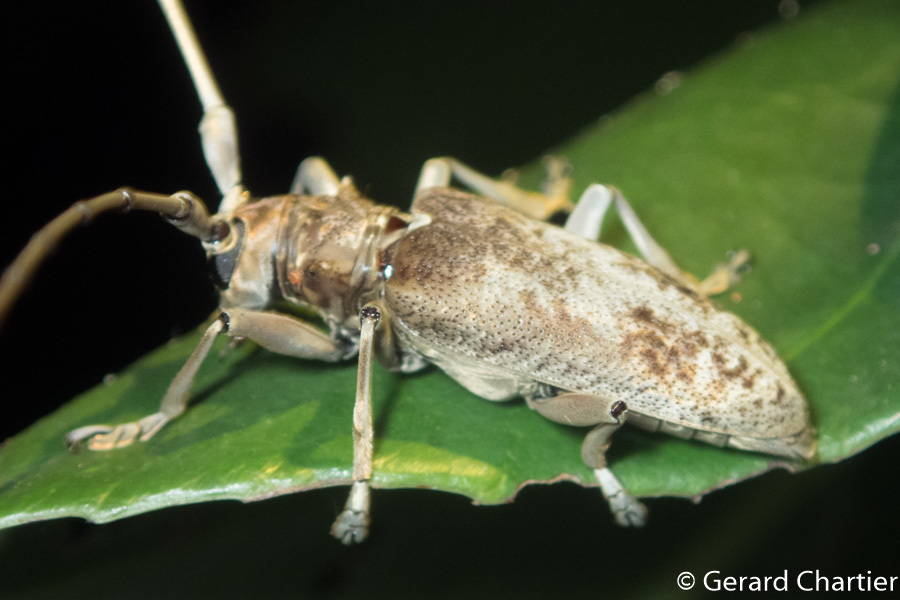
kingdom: Animalia
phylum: Arthropoda
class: Insecta
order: Coleoptera
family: Cerambycidae
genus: Acalolepta
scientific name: Acalolepta rusticatrix
